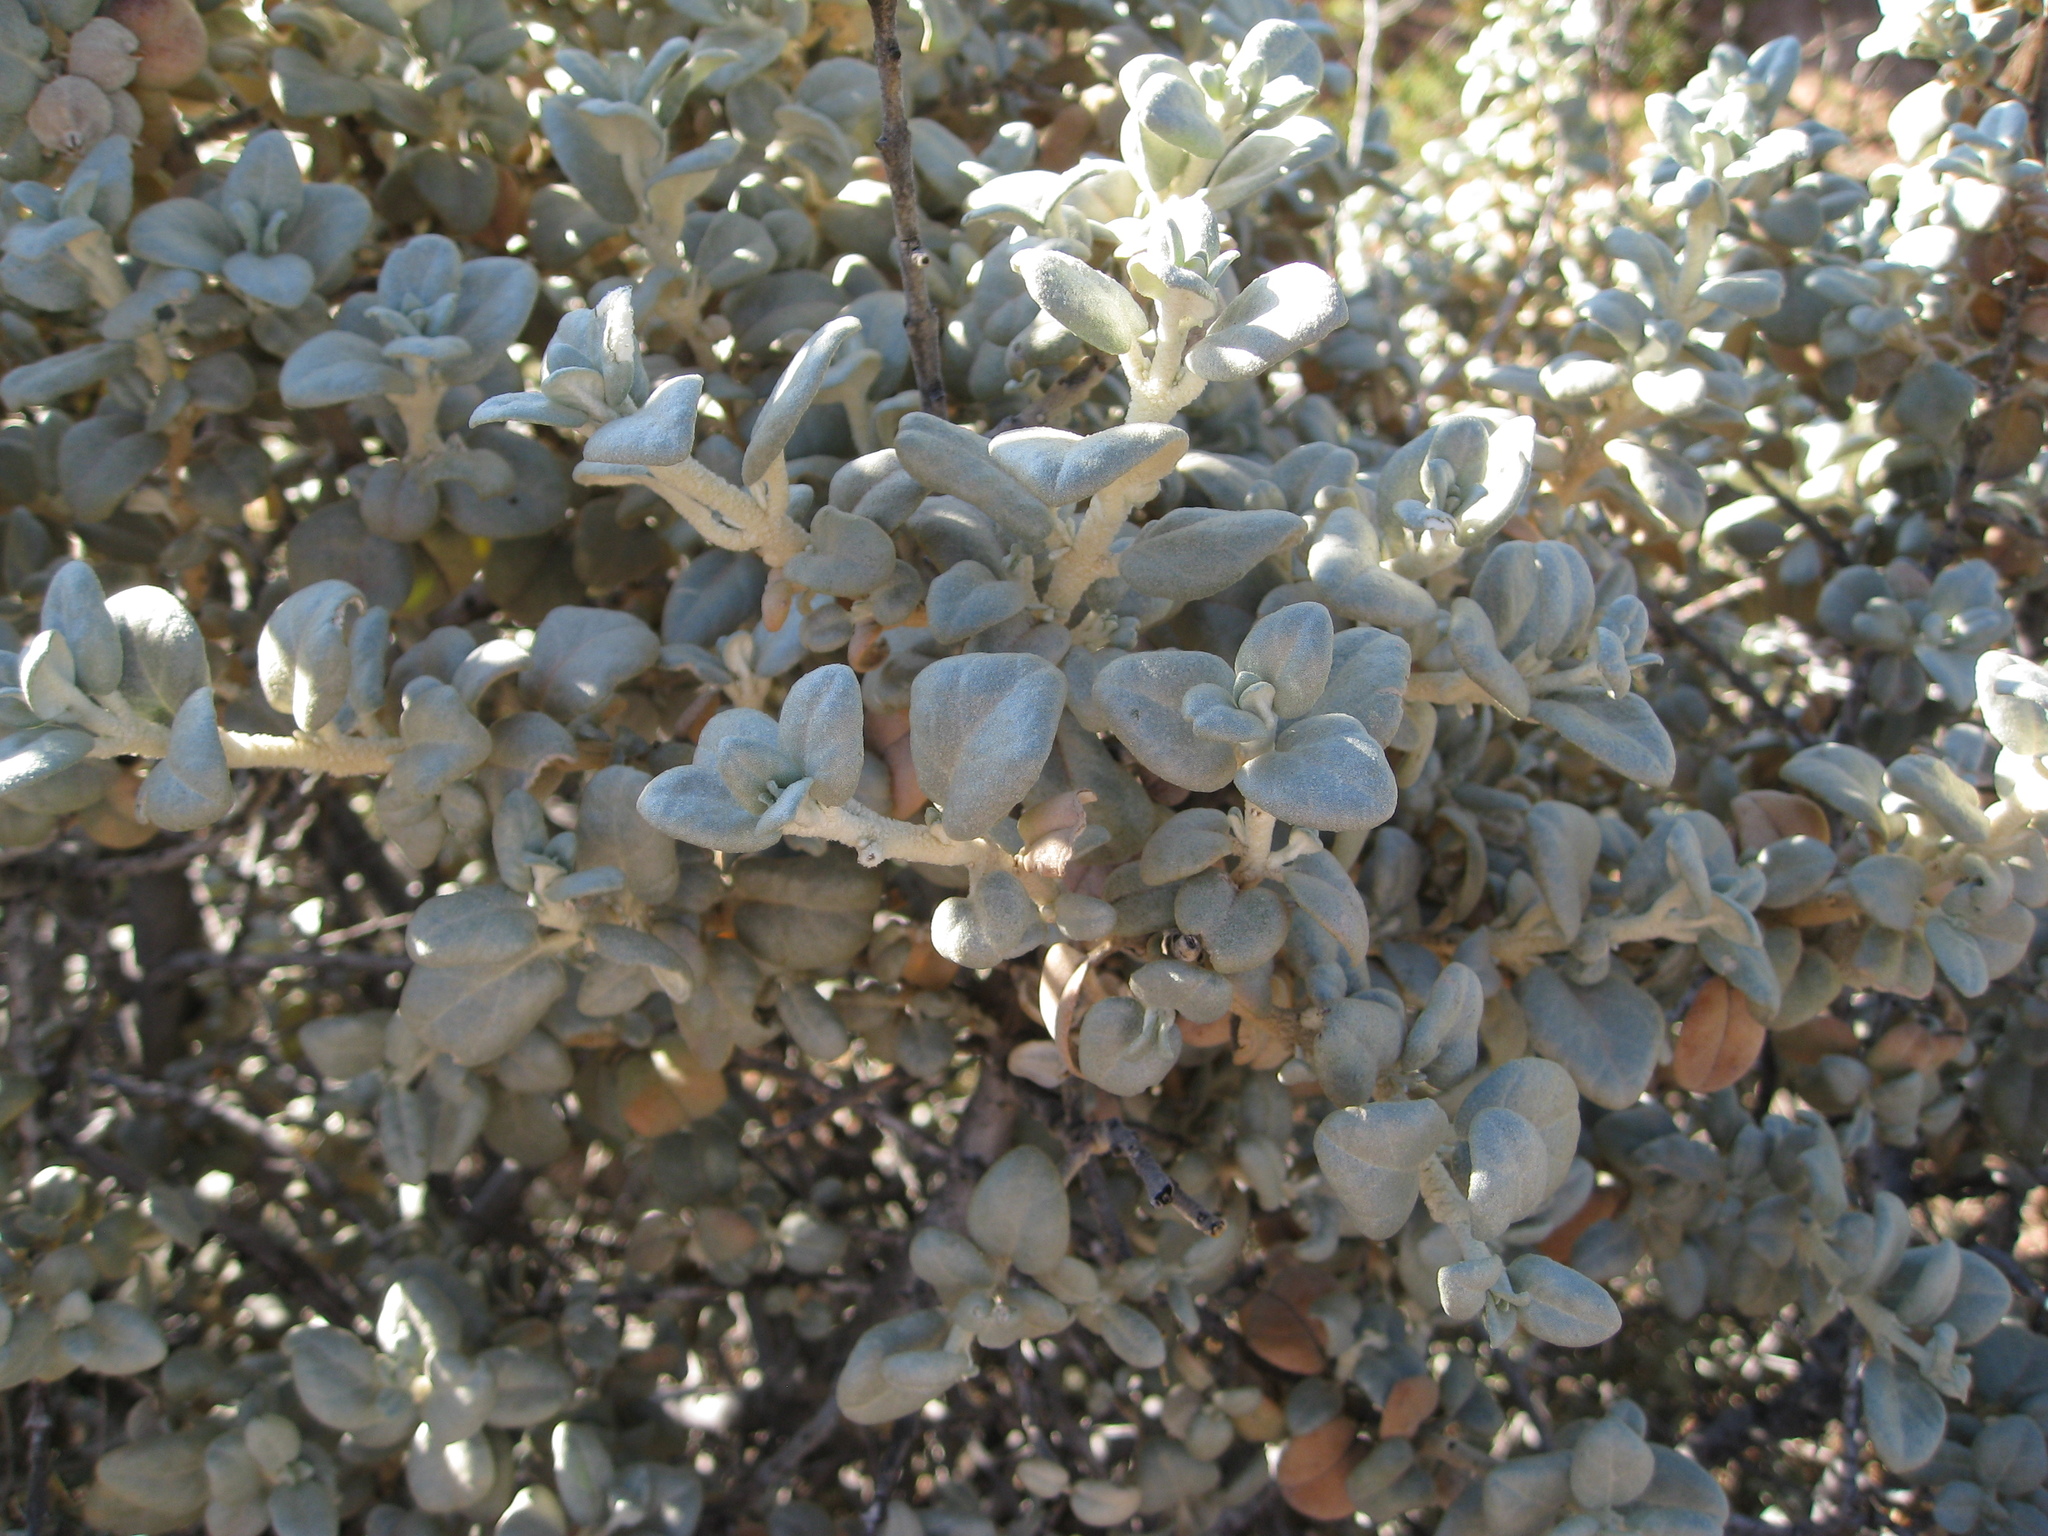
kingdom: Plantae
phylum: Tracheophyta
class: Magnoliopsida
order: Rosales
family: Elaeagnaceae
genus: Shepherdia
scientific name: Shepherdia rotundifolia
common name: Silverscale
